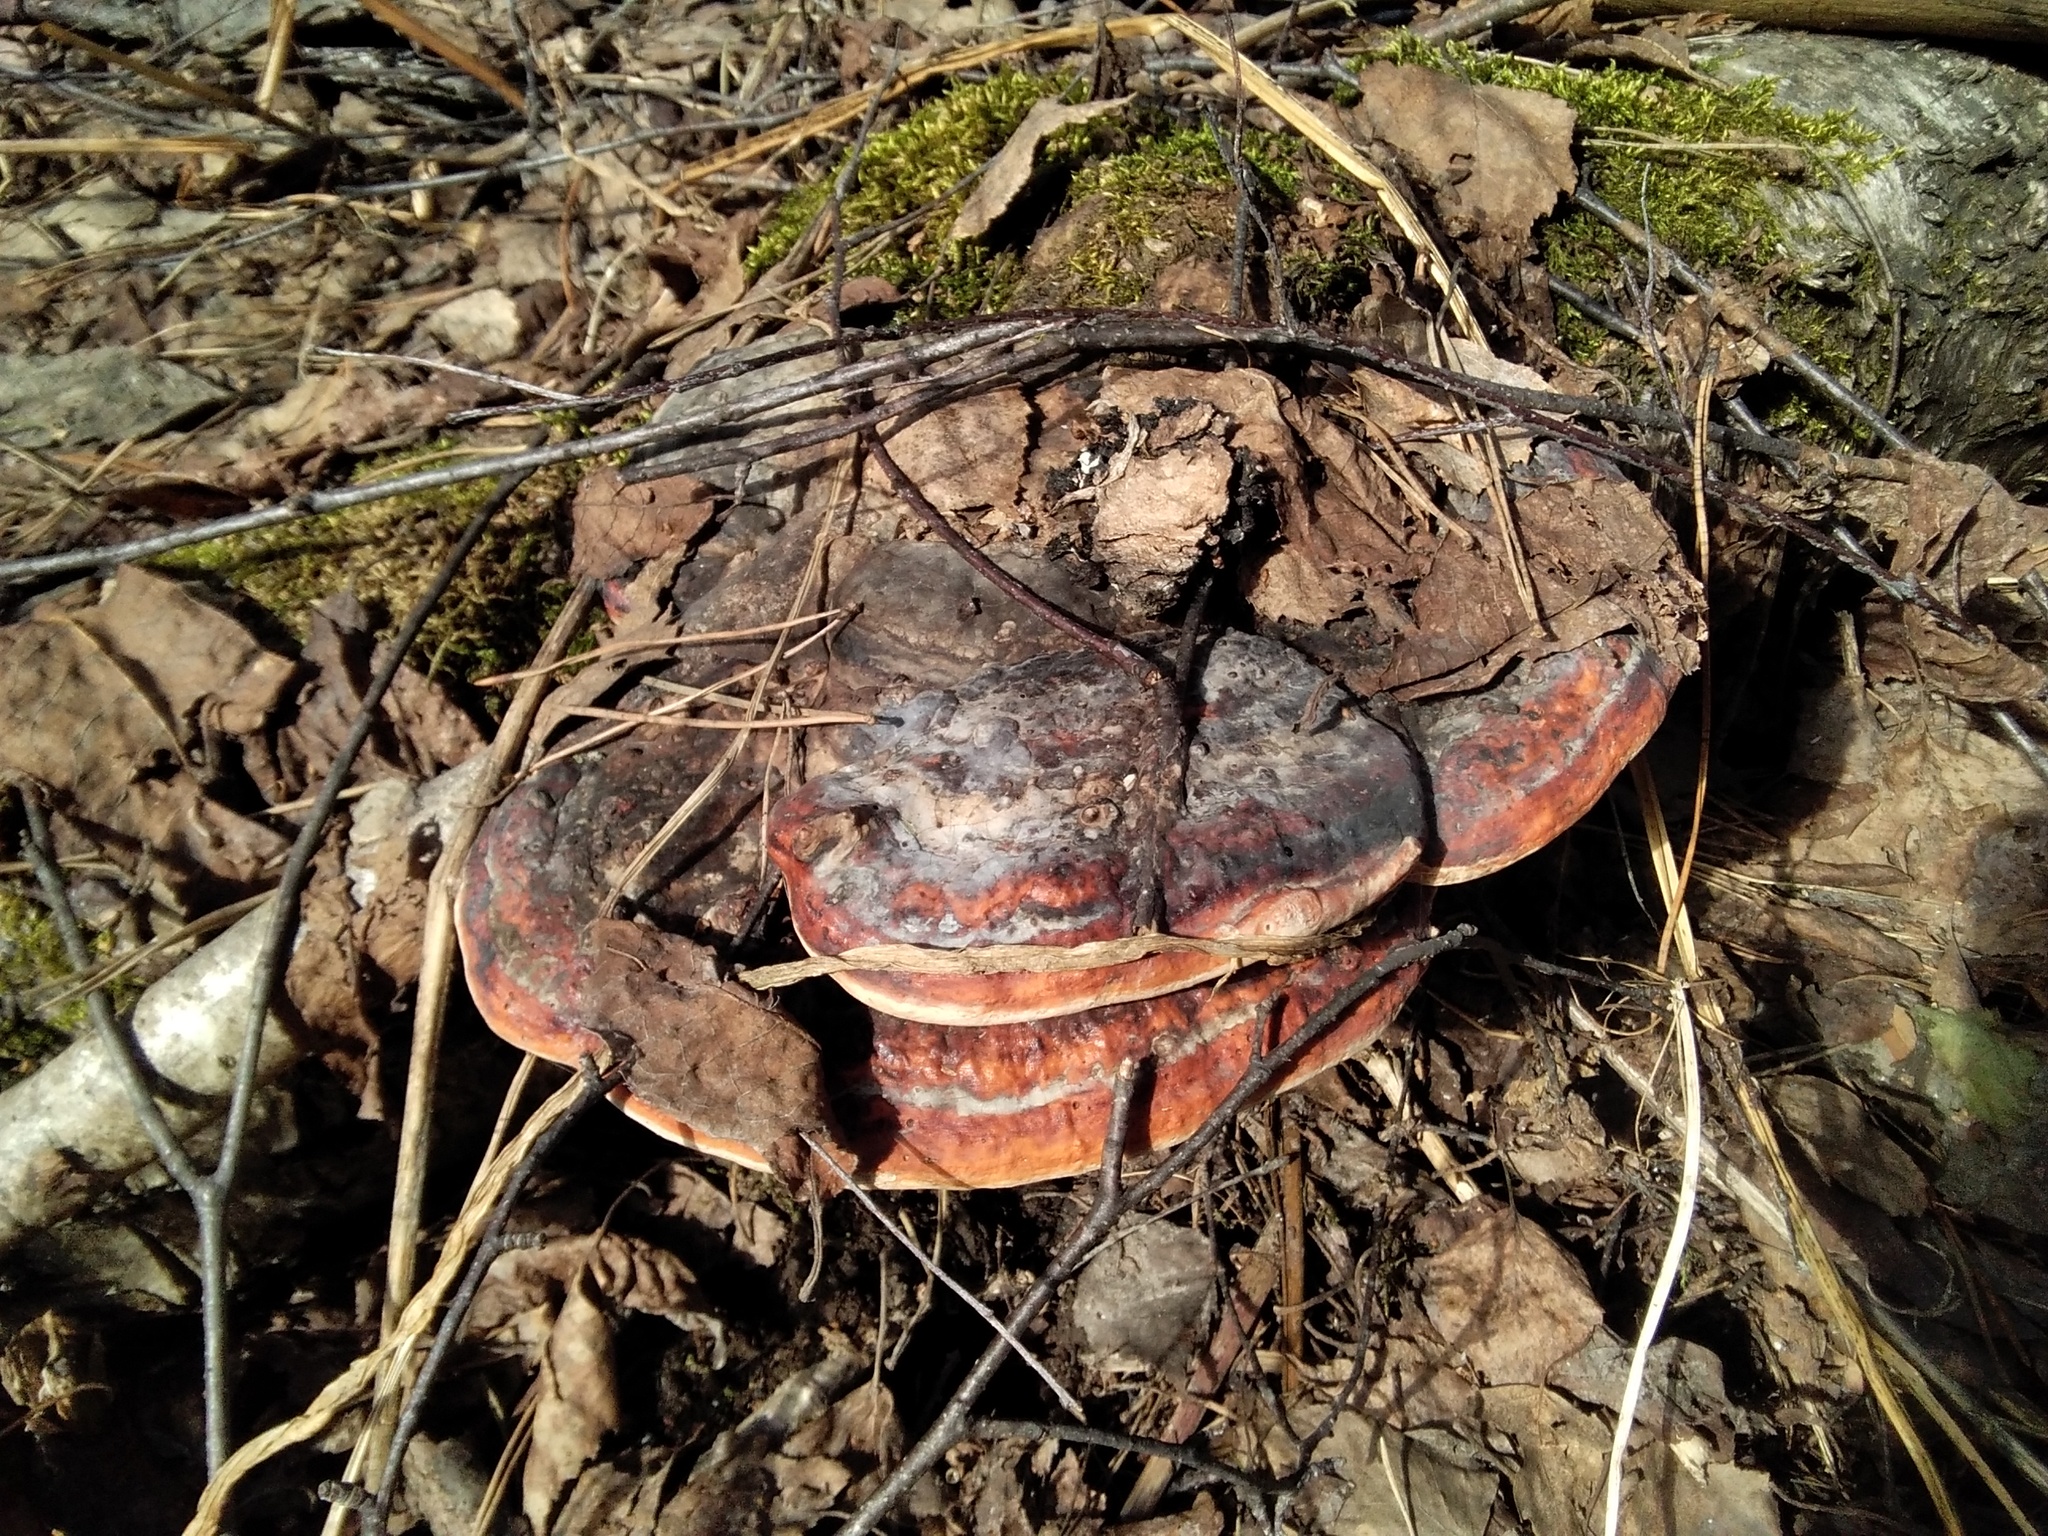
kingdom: Fungi
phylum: Basidiomycota
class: Agaricomycetes
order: Polyporales
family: Fomitopsidaceae
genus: Fomitopsis
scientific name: Fomitopsis pinicola
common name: Red-belted bracket
